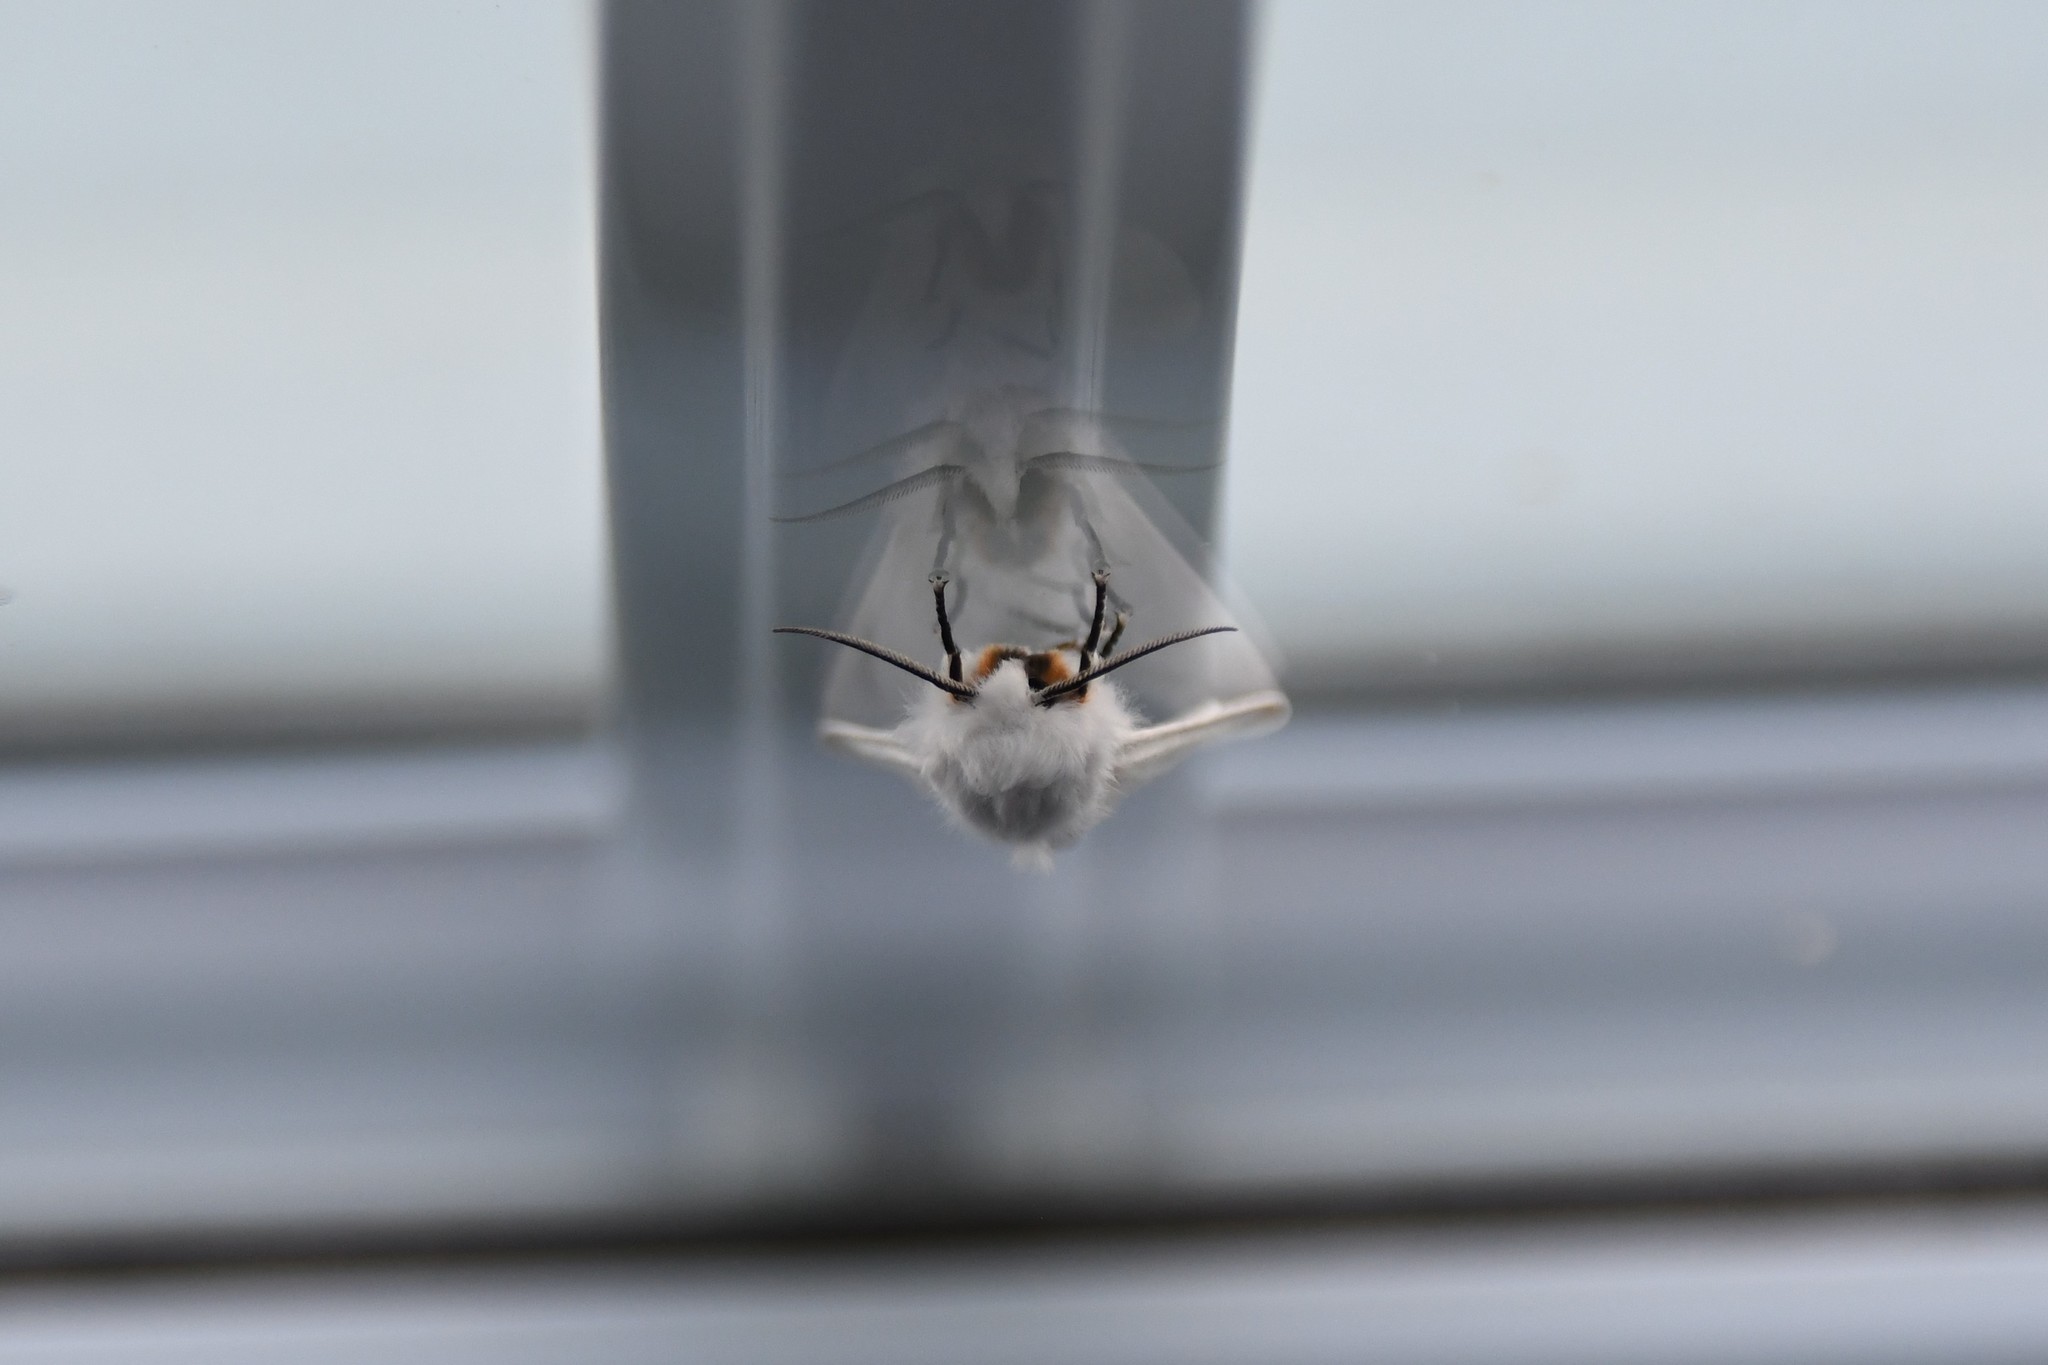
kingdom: Animalia
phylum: Arthropoda
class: Insecta
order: Lepidoptera
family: Erebidae
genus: Hyphantria
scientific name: Hyphantria cunea
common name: American white moth
